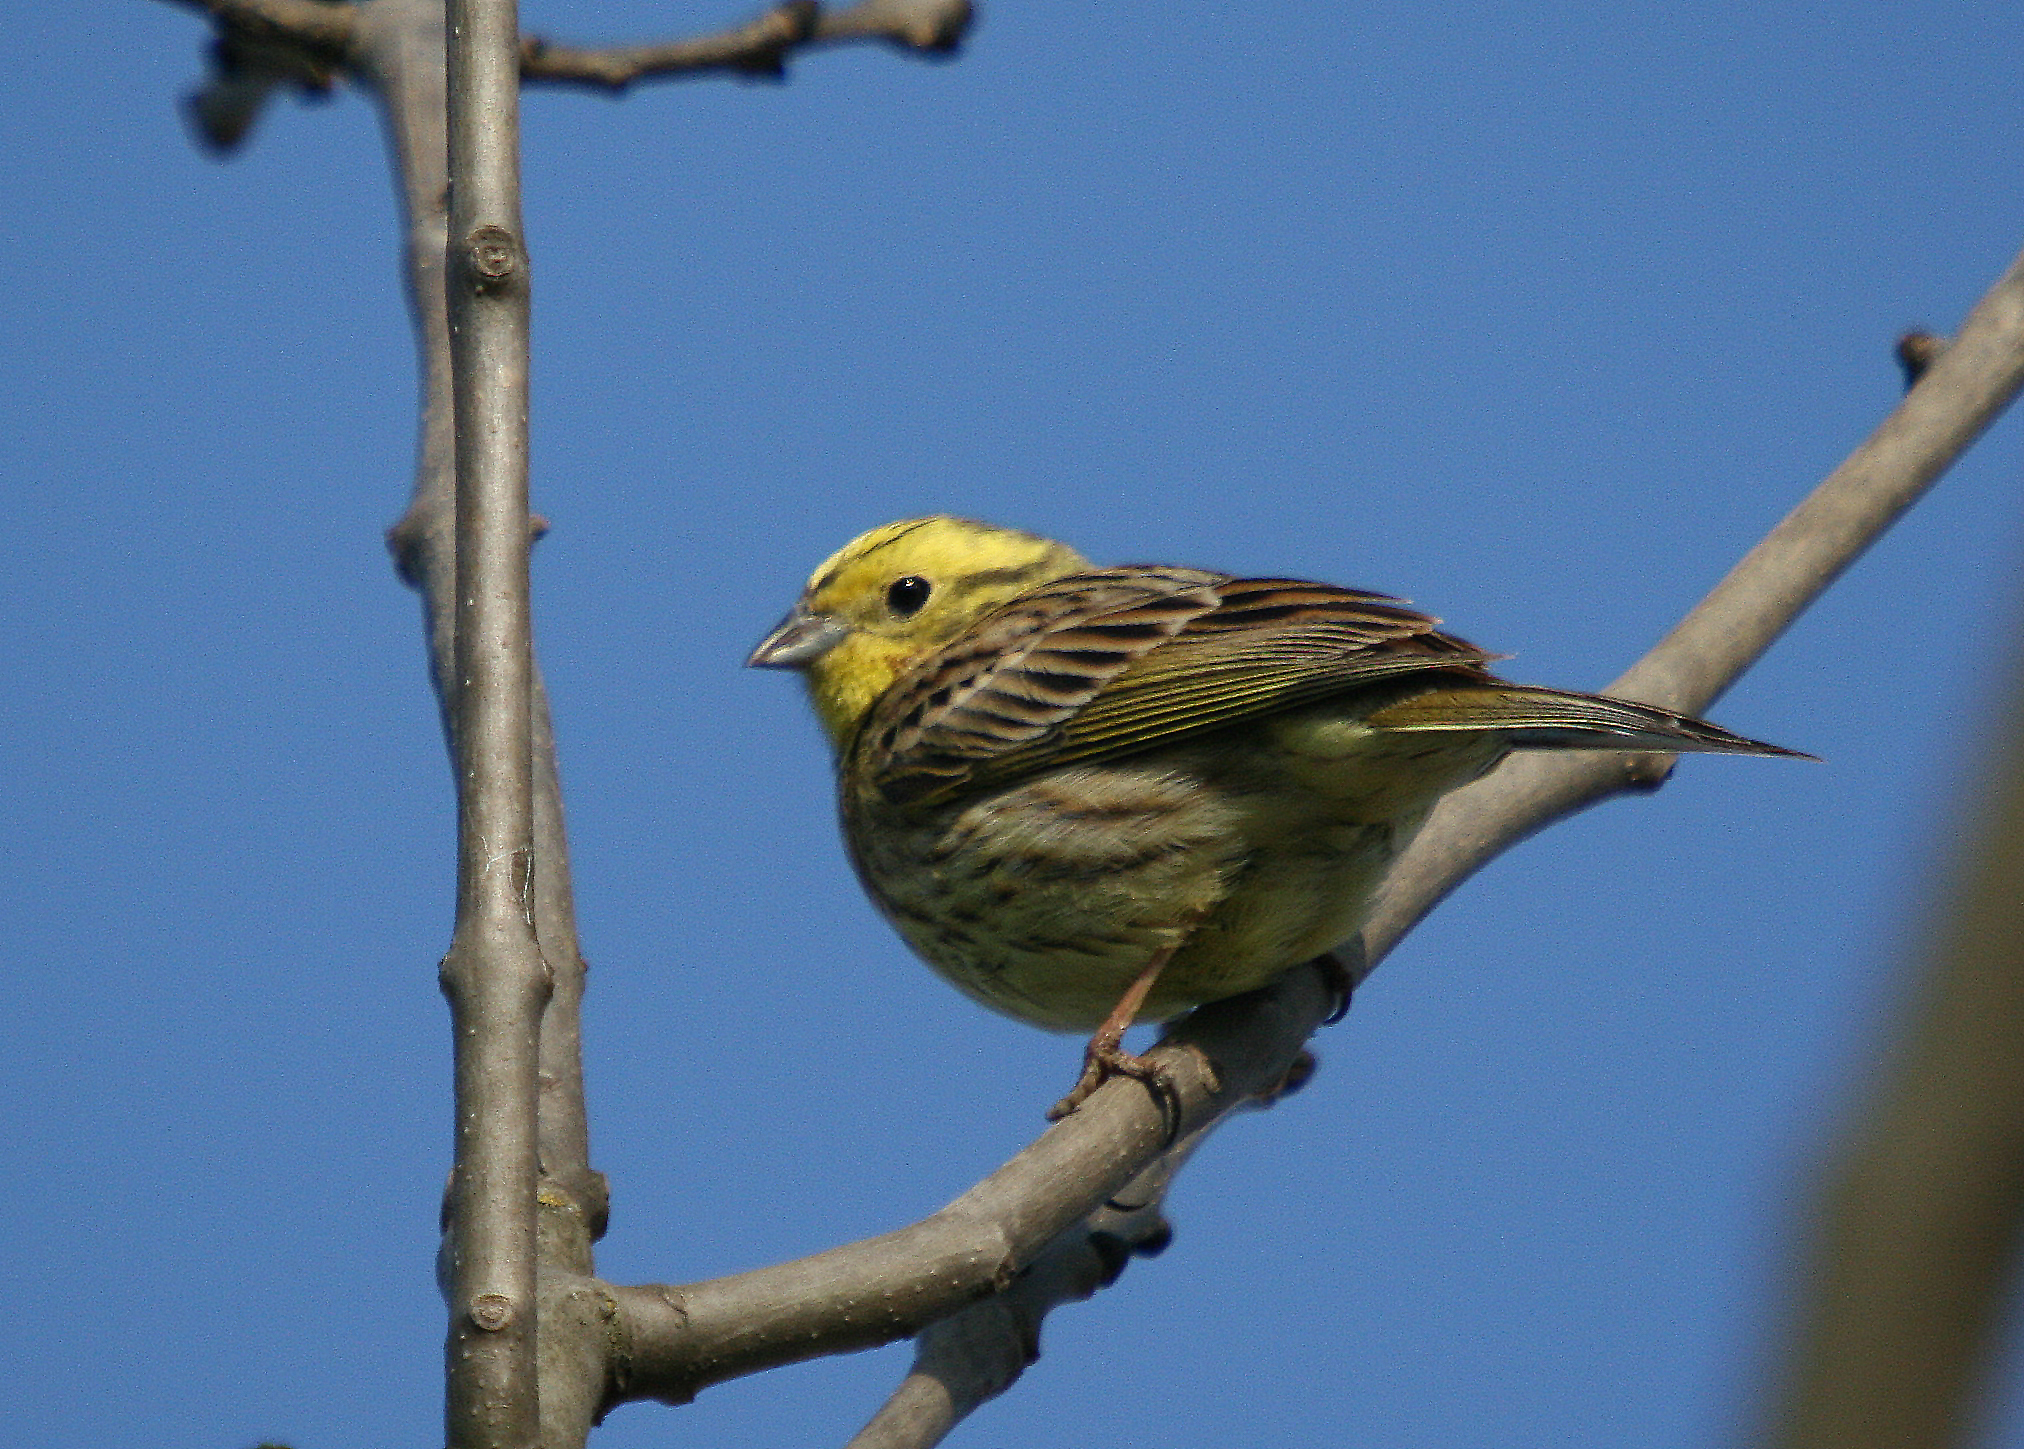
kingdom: Animalia
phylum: Chordata
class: Aves
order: Passeriformes
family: Emberizidae
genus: Emberiza
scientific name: Emberiza citrinella
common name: Yellowhammer
